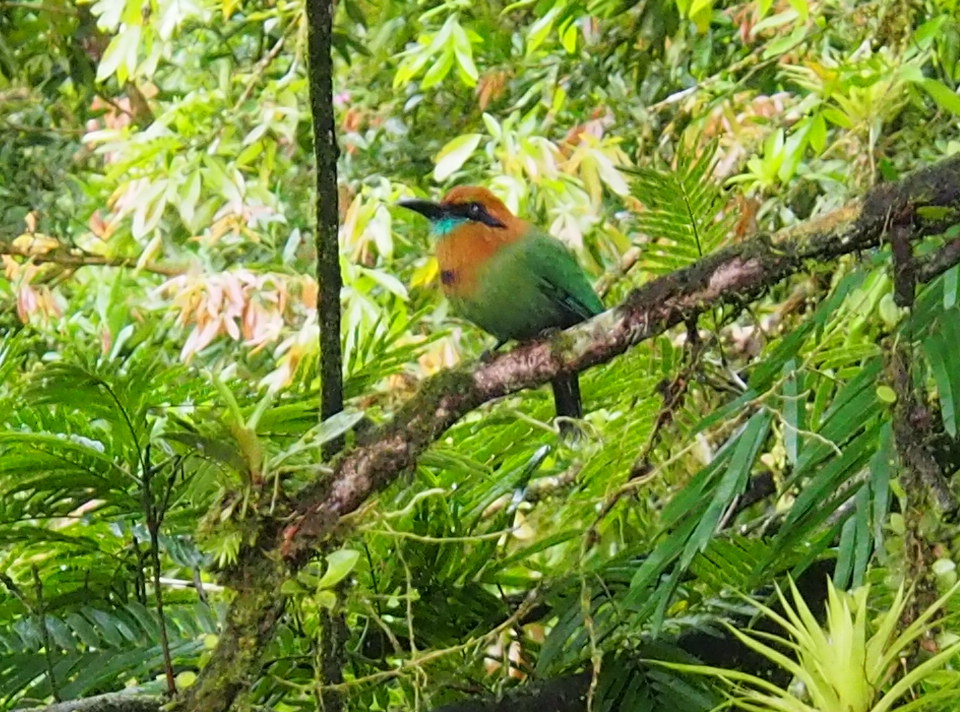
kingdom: Animalia
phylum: Chordata
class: Aves
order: Coraciiformes
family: Momotidae
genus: Electron
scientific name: Electron platyrhynchum
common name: Broad-billed motmot
